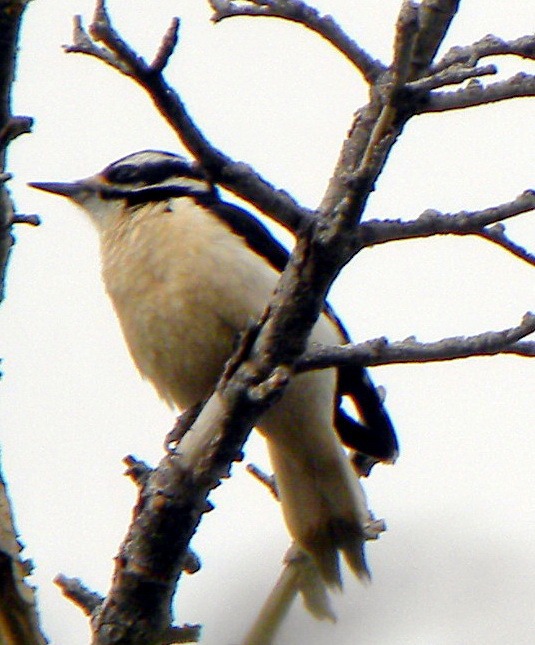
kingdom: Animalia
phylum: Chordata
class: Aves
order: Piciformes
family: Picidae
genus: Leuconotopicus
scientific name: Leuconotopicus villosus
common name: Hairy woodpecker
